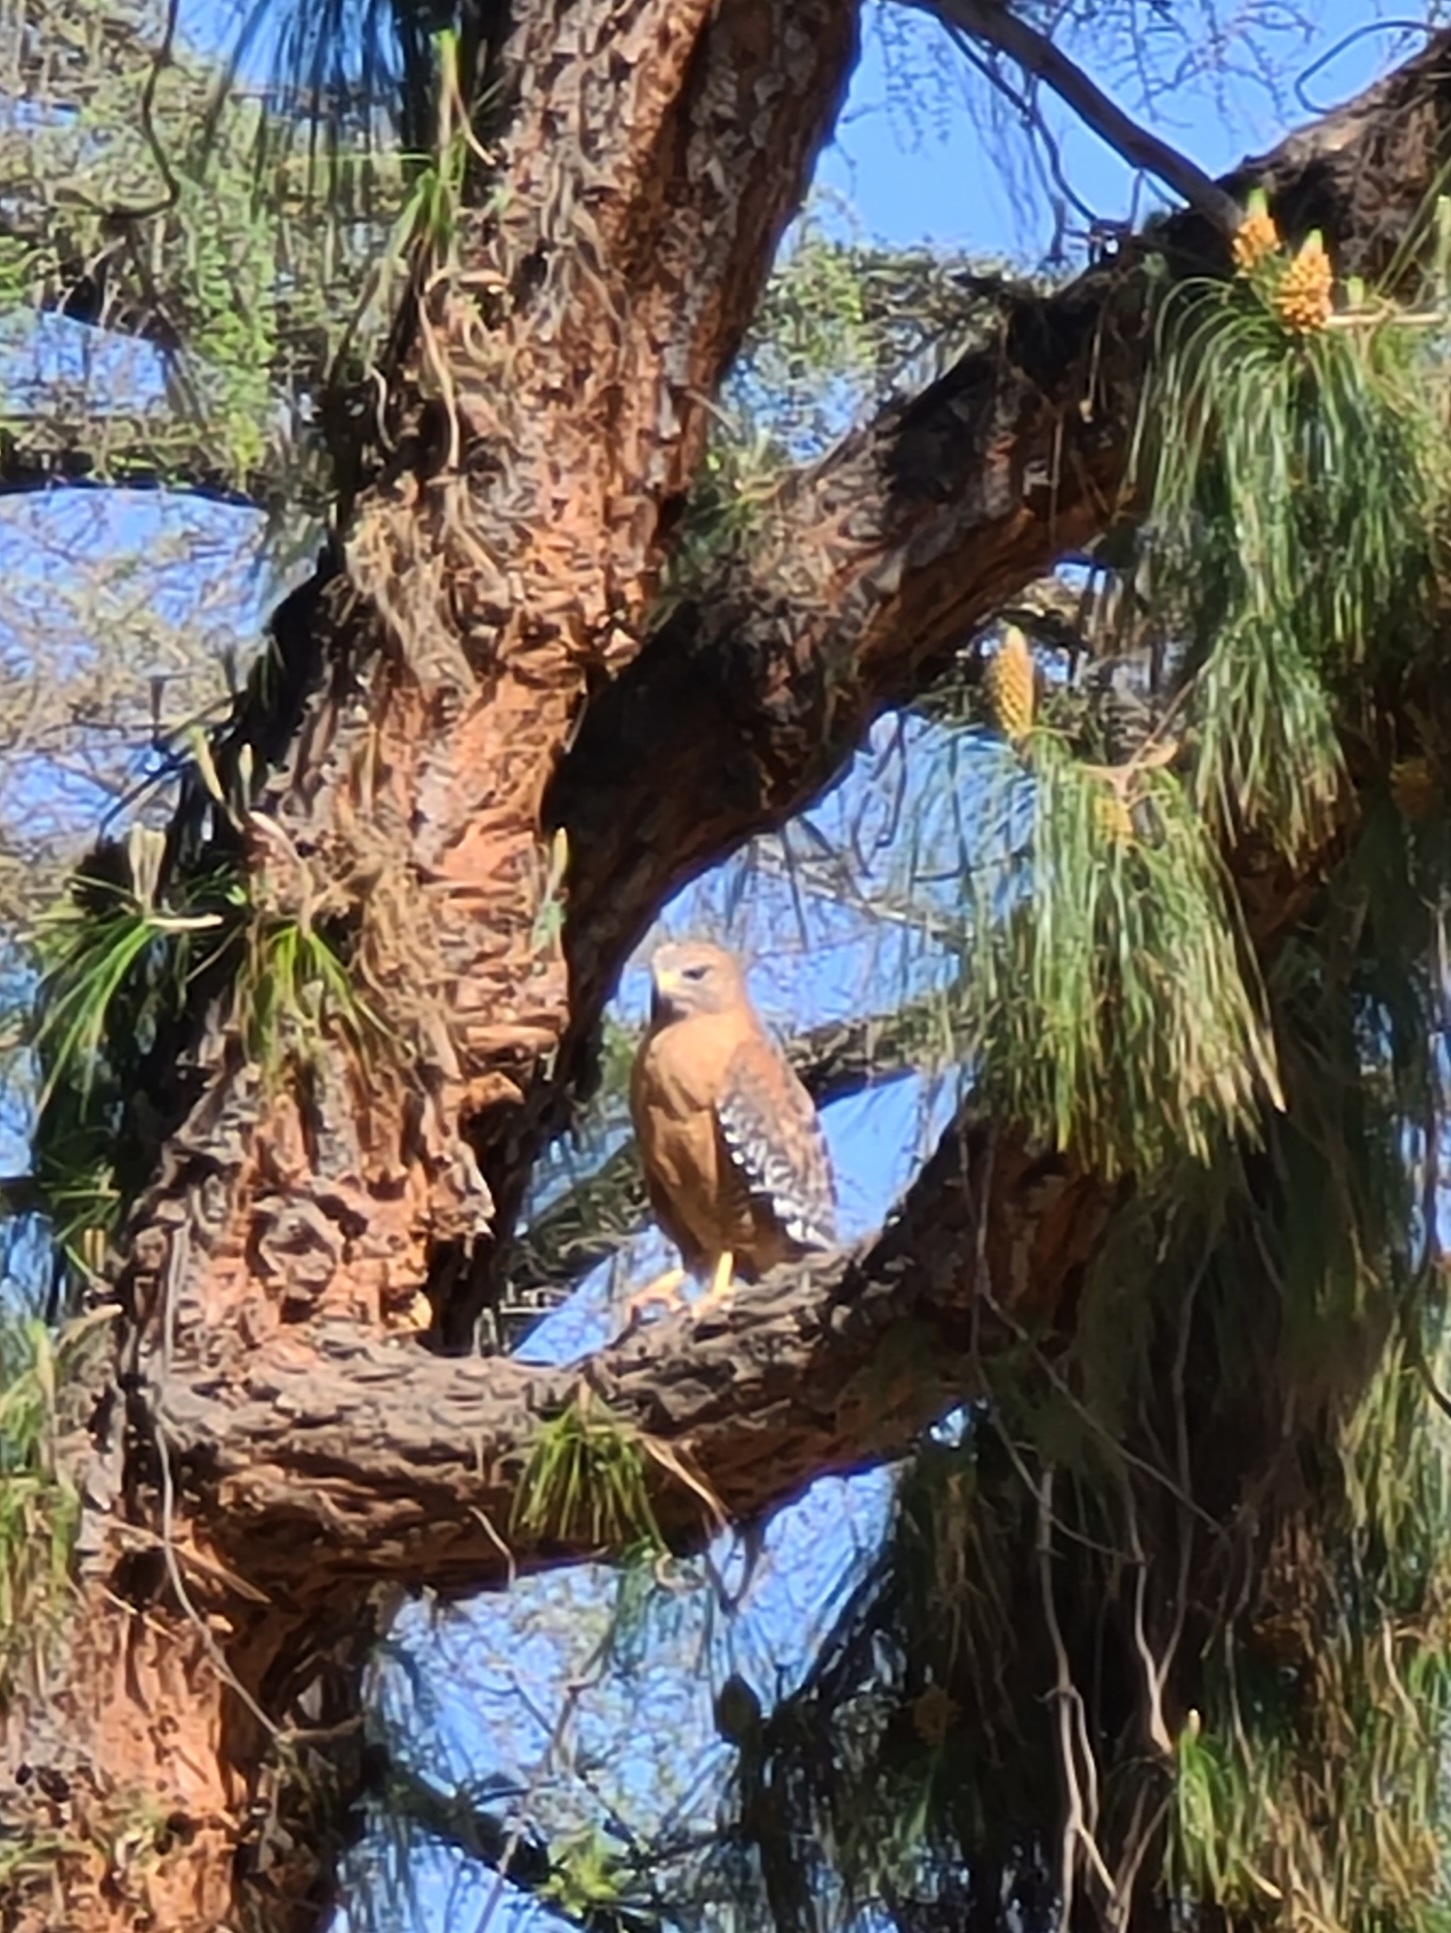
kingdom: Animalia
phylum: Chordata
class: Aves
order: Accipitriformes
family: Accipitridae
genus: Buteo
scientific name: Buteo lineatus
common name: Red-shouldered hawk
